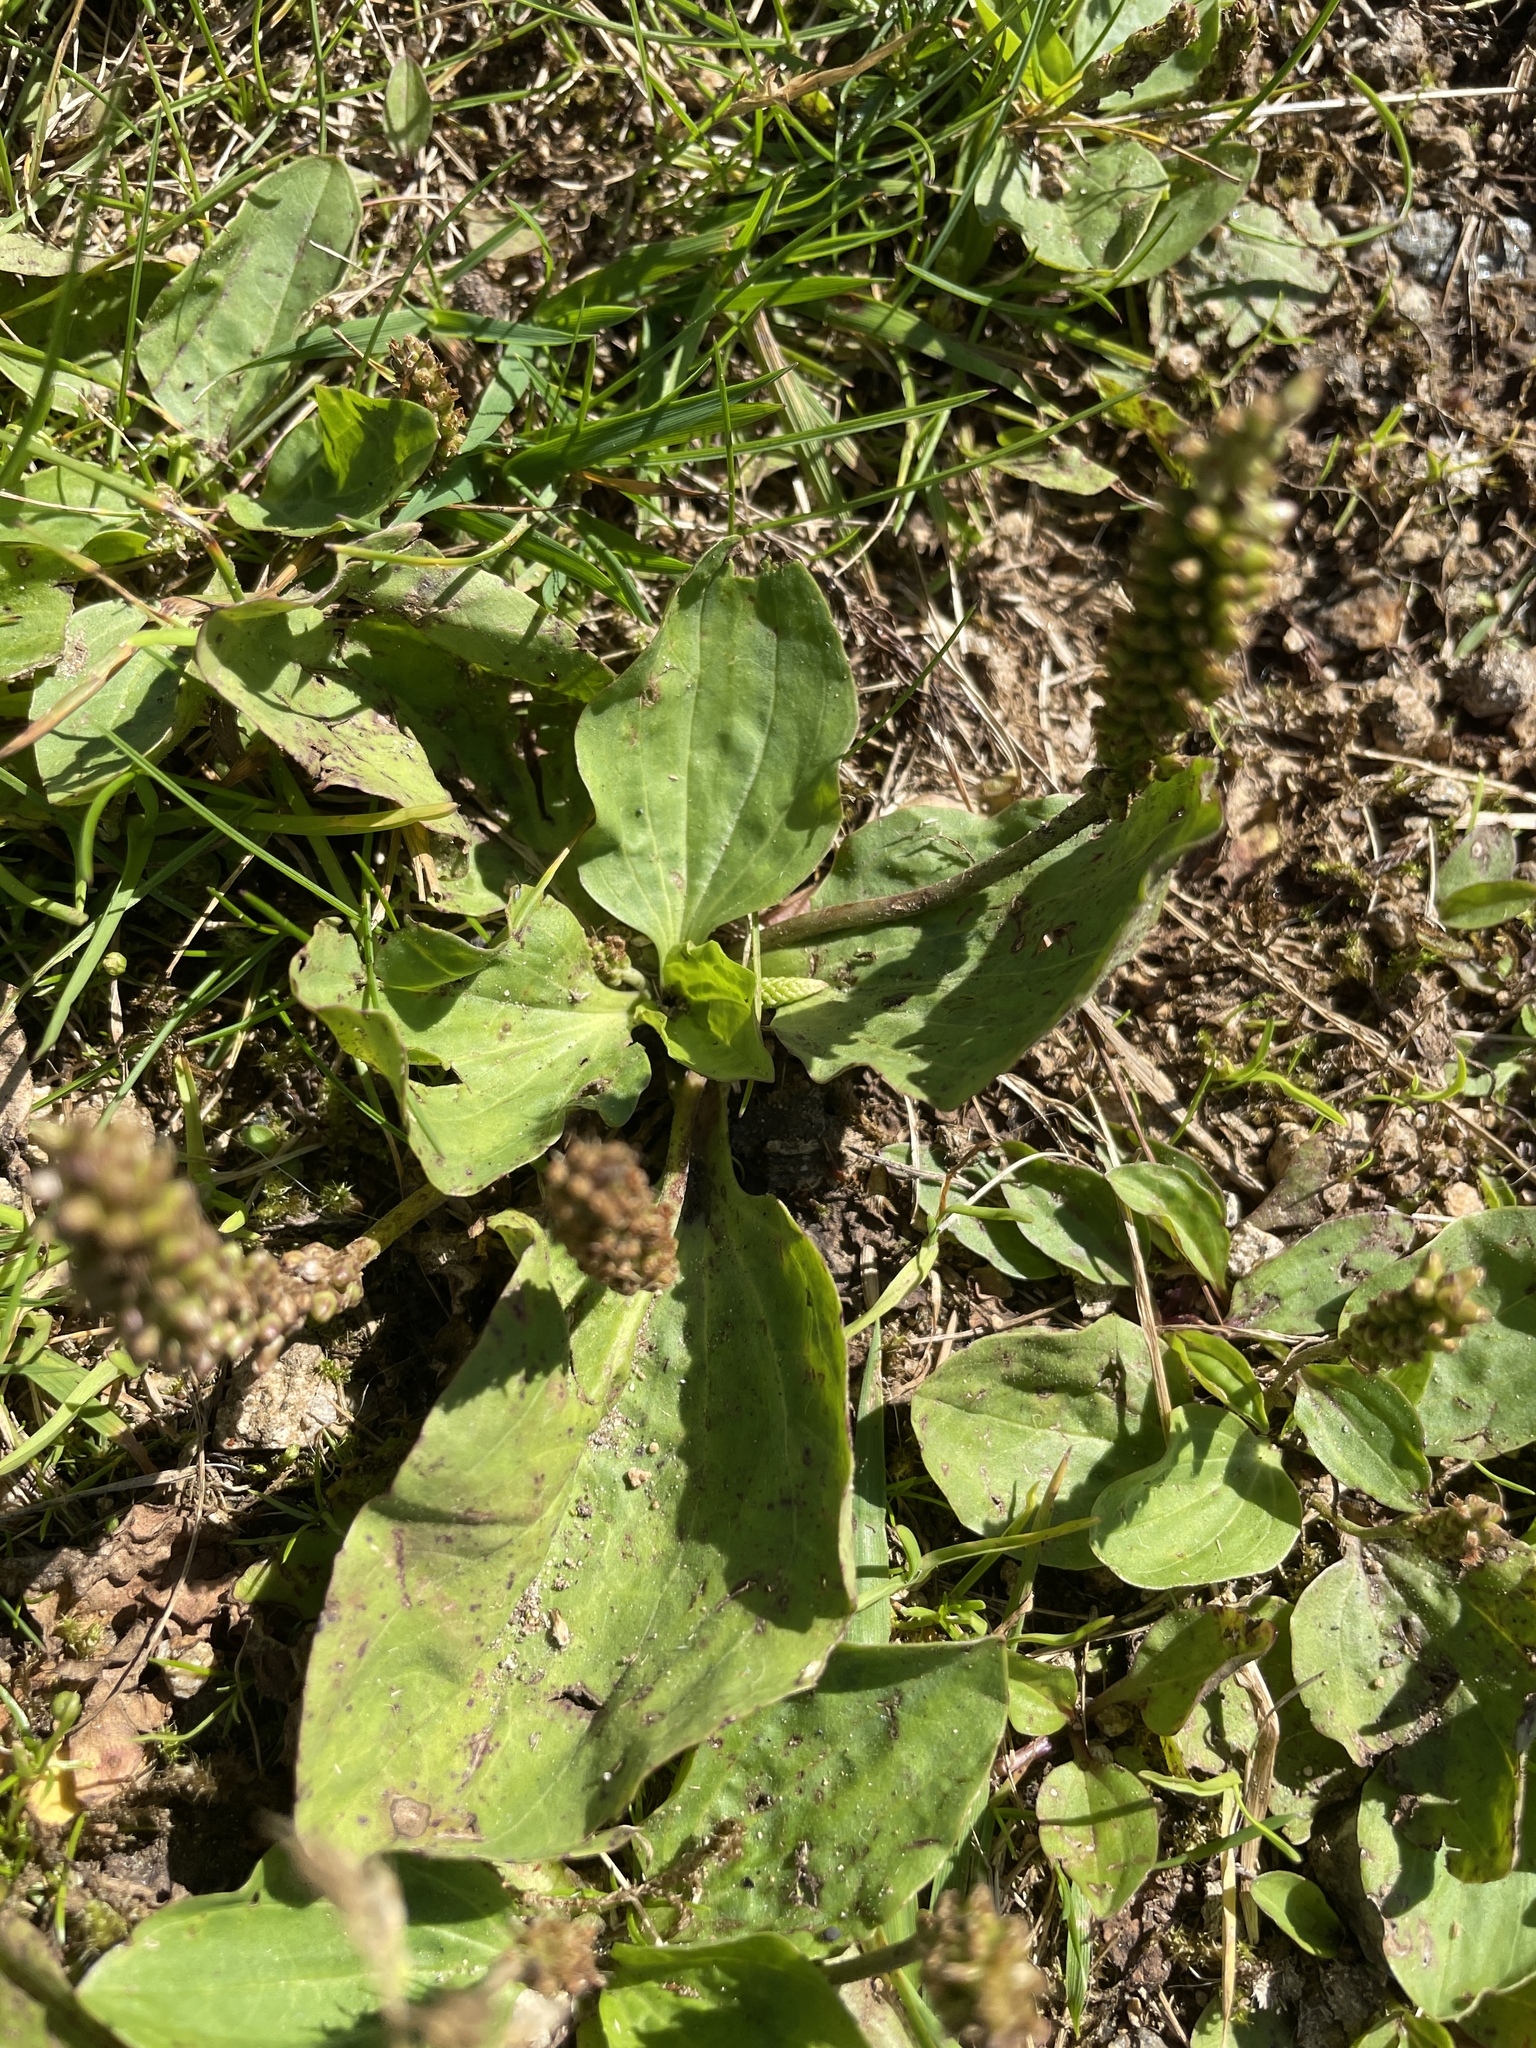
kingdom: Plantae
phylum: Tracheophyta
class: Magnoliopsida
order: Lamiales
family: Plantaginaceae
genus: Plantago
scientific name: Plantago major
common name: Common plantain
